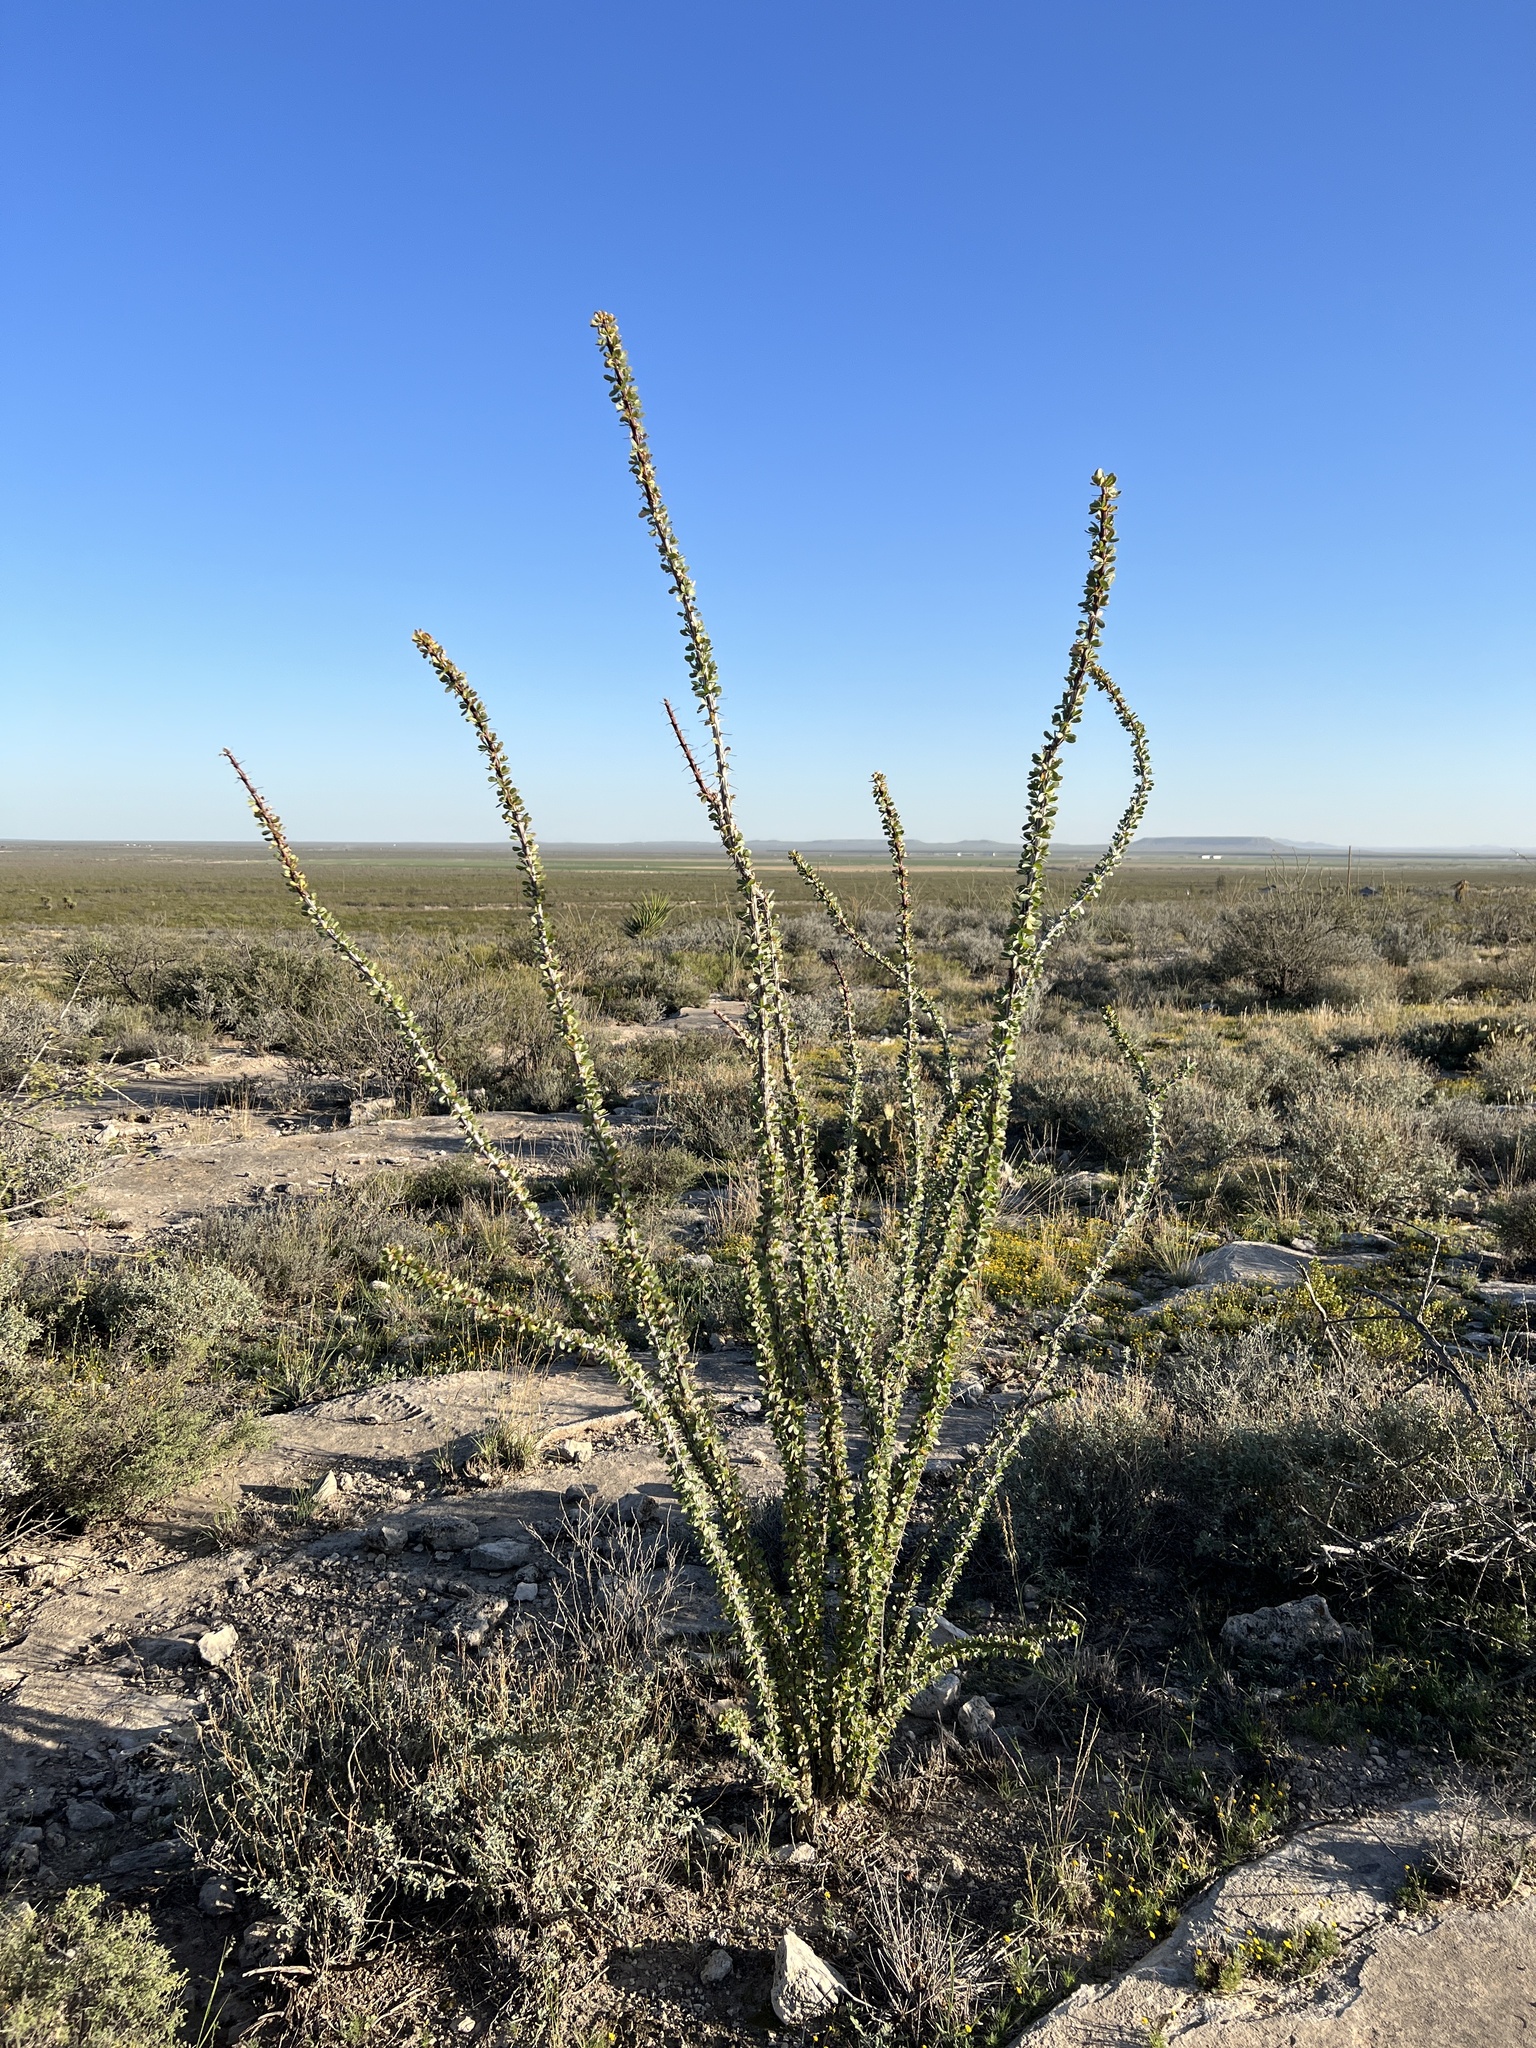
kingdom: Plantae
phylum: Tracheophyta
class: Magnoliopsida
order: Ericales
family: Fouquieriaceae
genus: Fouquieria
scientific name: Fouquieria splendens
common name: Vine-cactus
